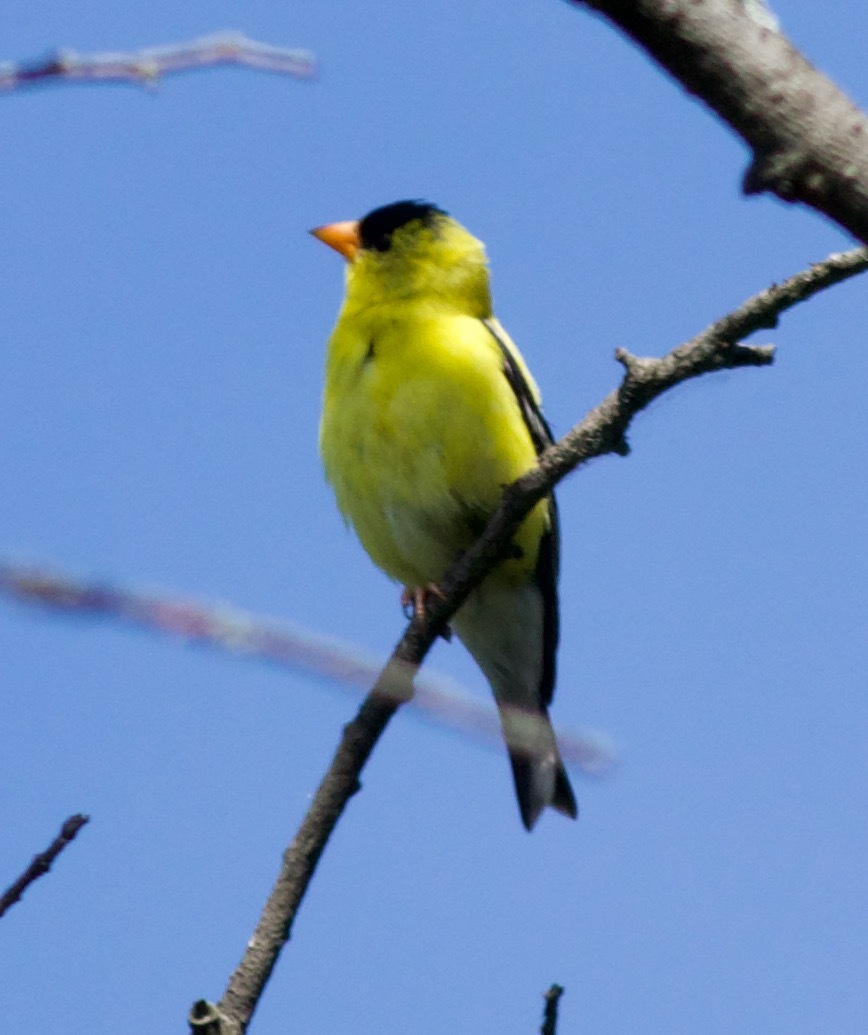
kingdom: Animalia
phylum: Chordata
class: Aves
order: Passeriformes
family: Fringillidae
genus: Spinus
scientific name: Spinus tristis
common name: American goldfinch
